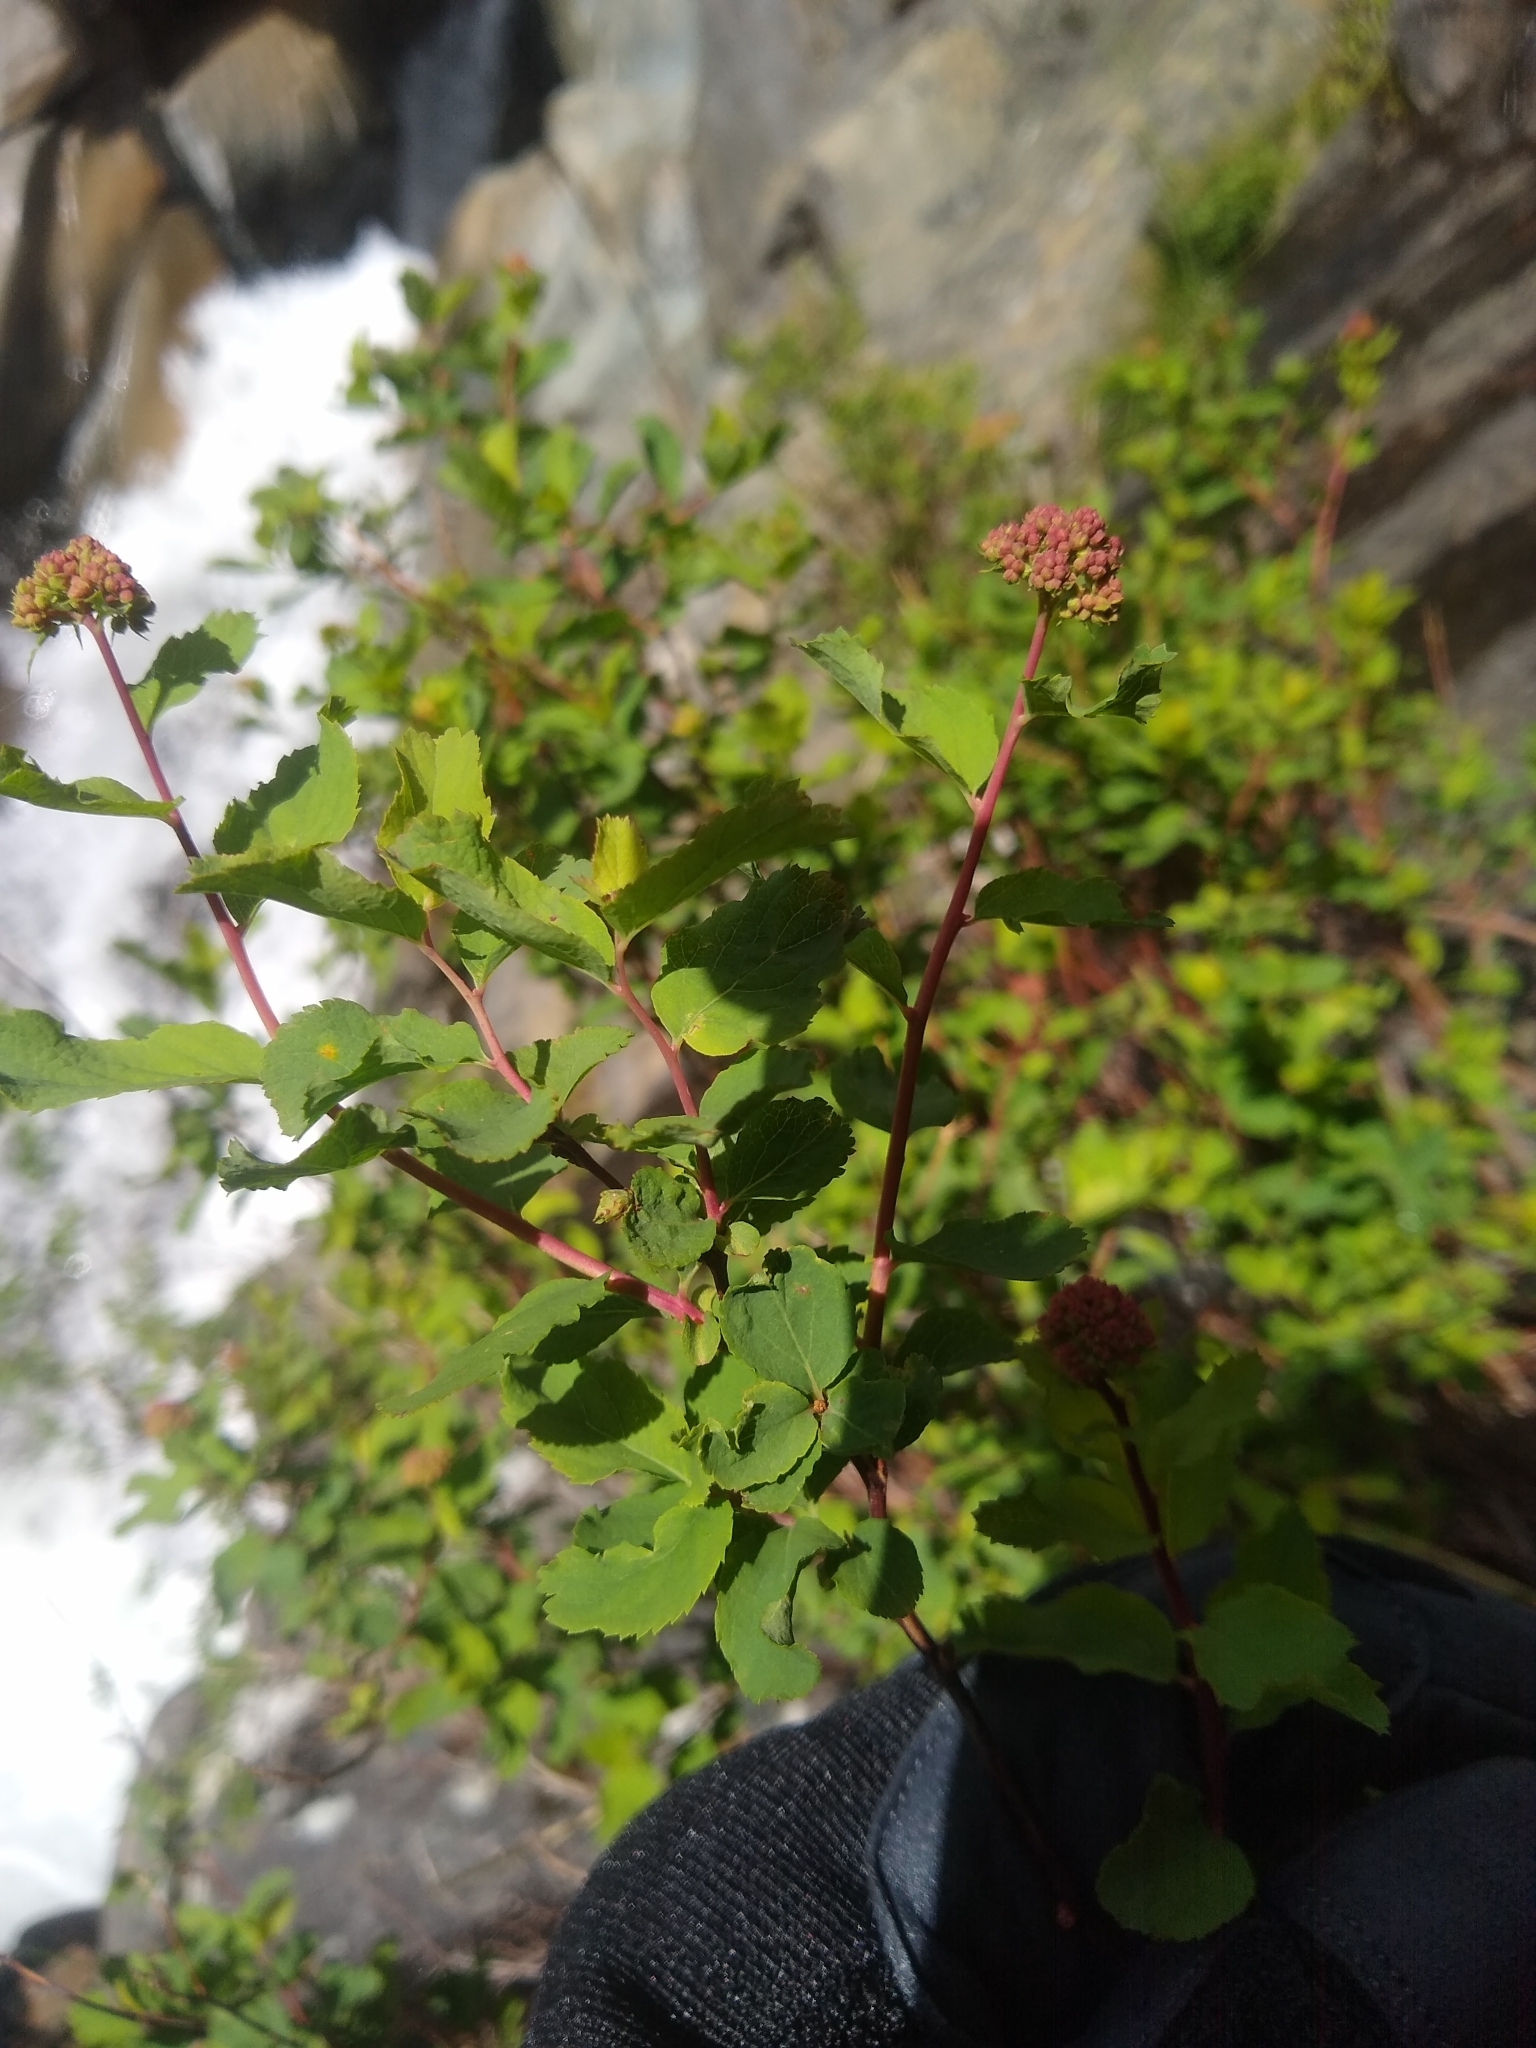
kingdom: Plantae
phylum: Tracheophyta
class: Magnoliopsida
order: Rosales
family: Rosaceae
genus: Spiraea
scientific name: Spiraea splendens
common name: Subalpine meadowsweet
